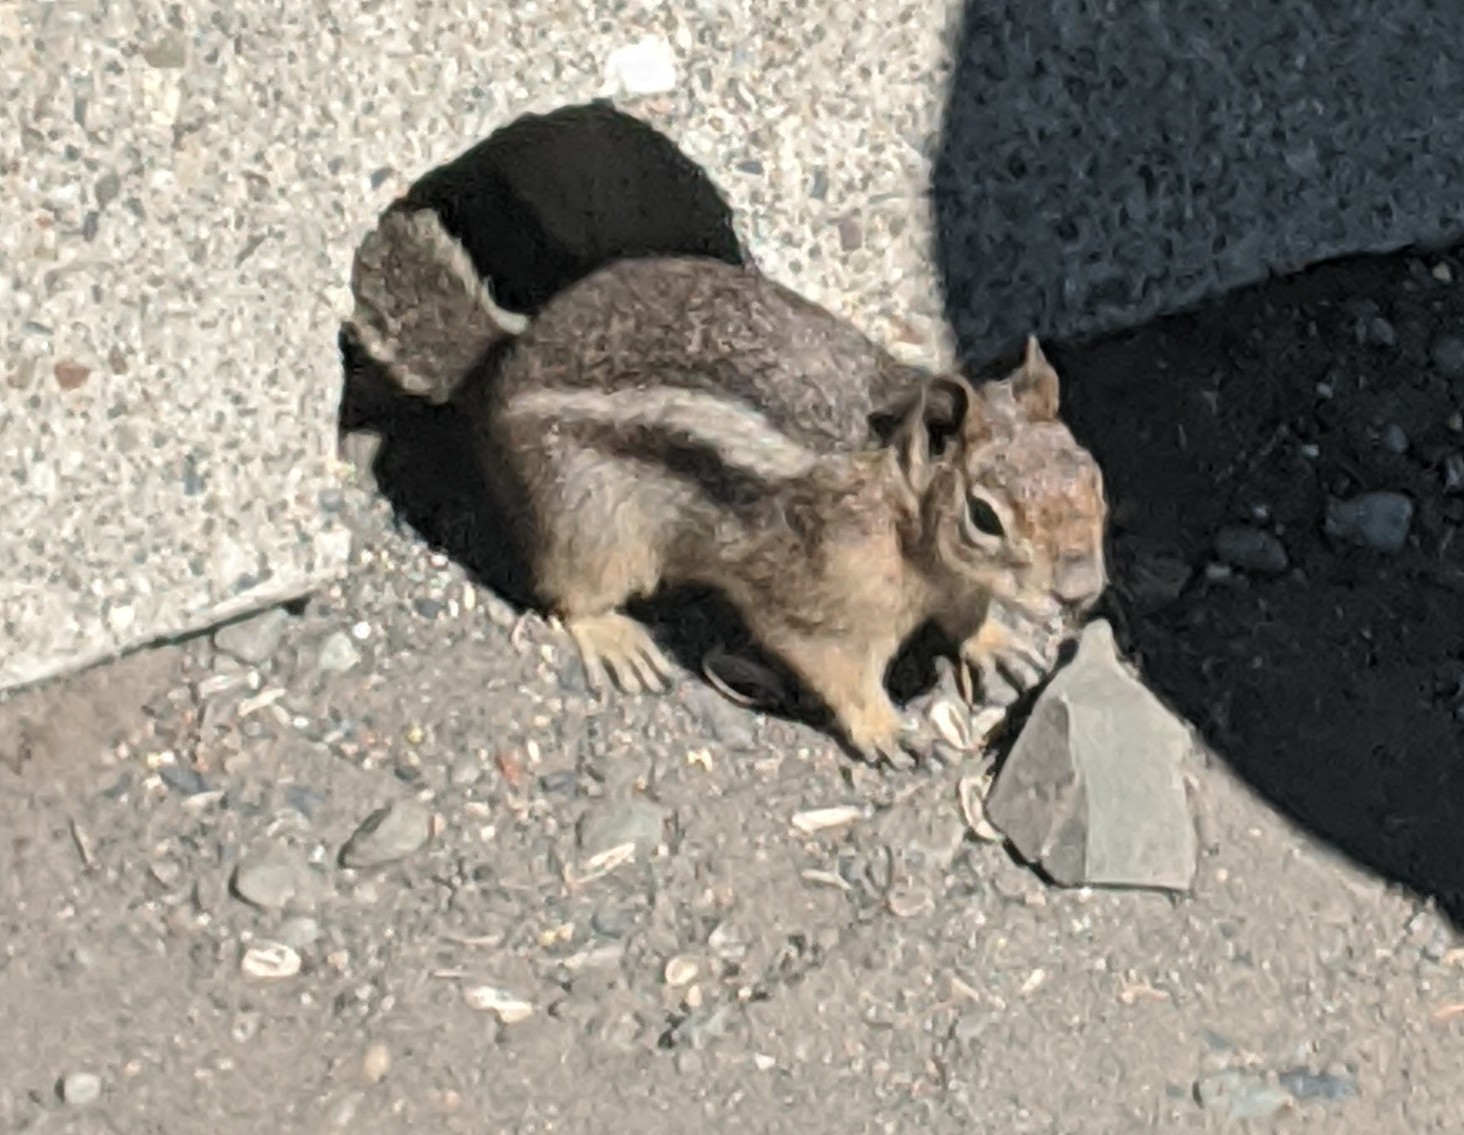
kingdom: Animalia
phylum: Chordata
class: Mammalia
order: Rodentia
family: Sciuridae
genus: Callospermophilus
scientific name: Callospermophilus saturatus
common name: Cascade golden-mantled ground squirrel
